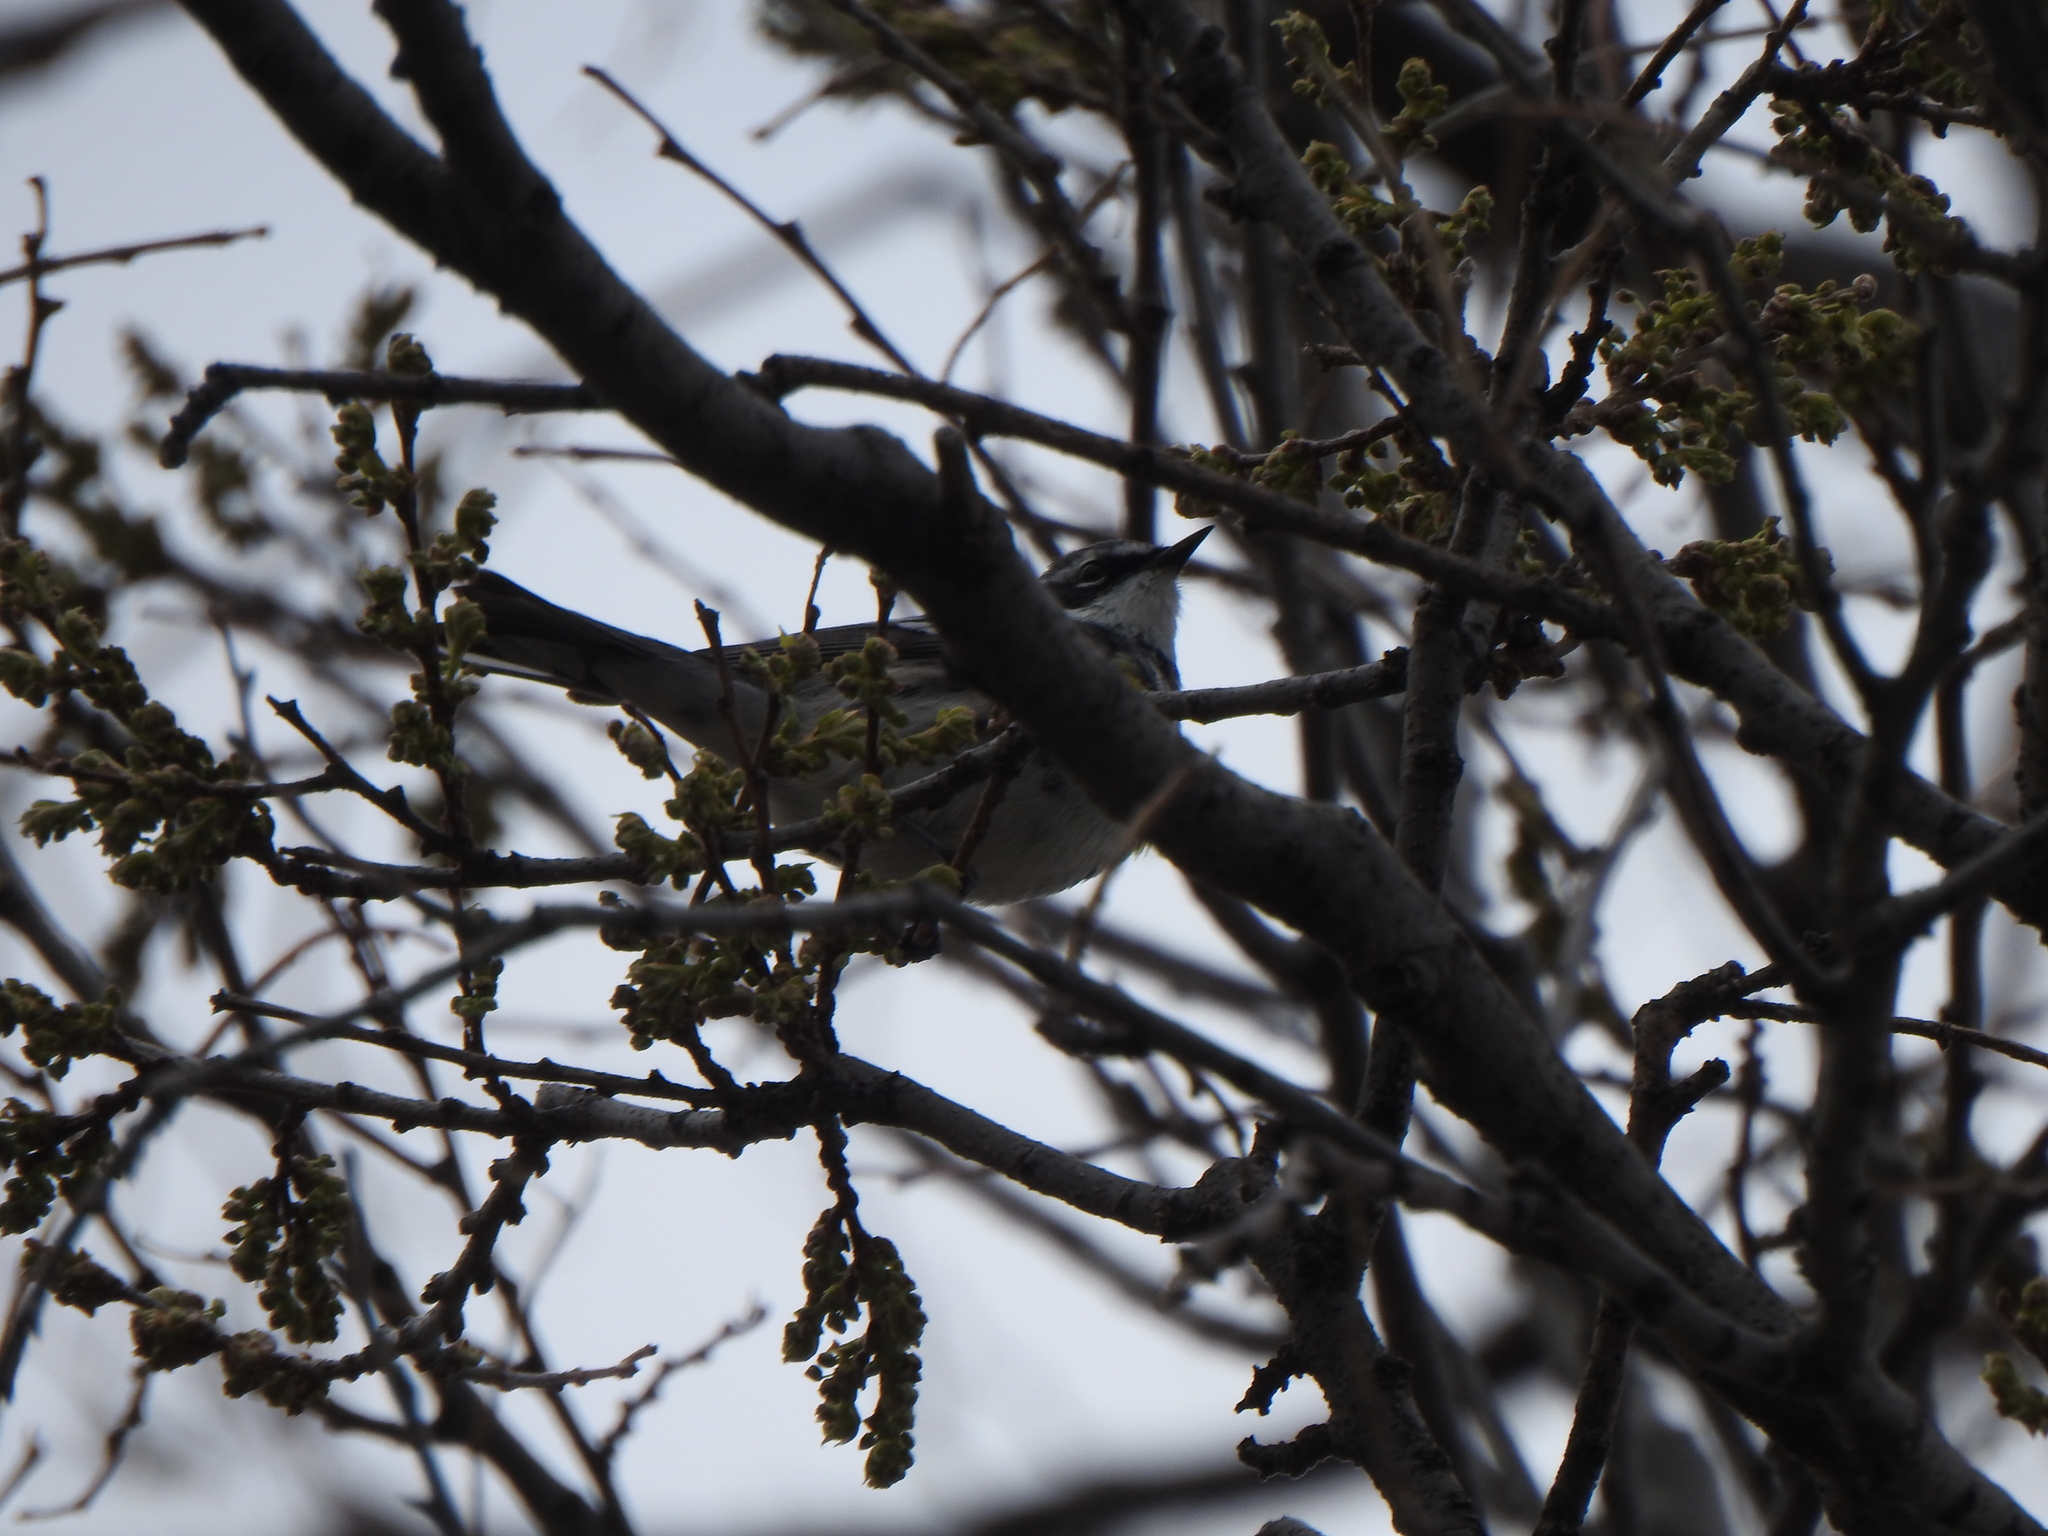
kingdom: Animalia
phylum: Chordata
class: Aves
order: Passeriformes
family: Parulidae
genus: Setophaga
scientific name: Setophaga coronata
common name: Myrtle warbler
